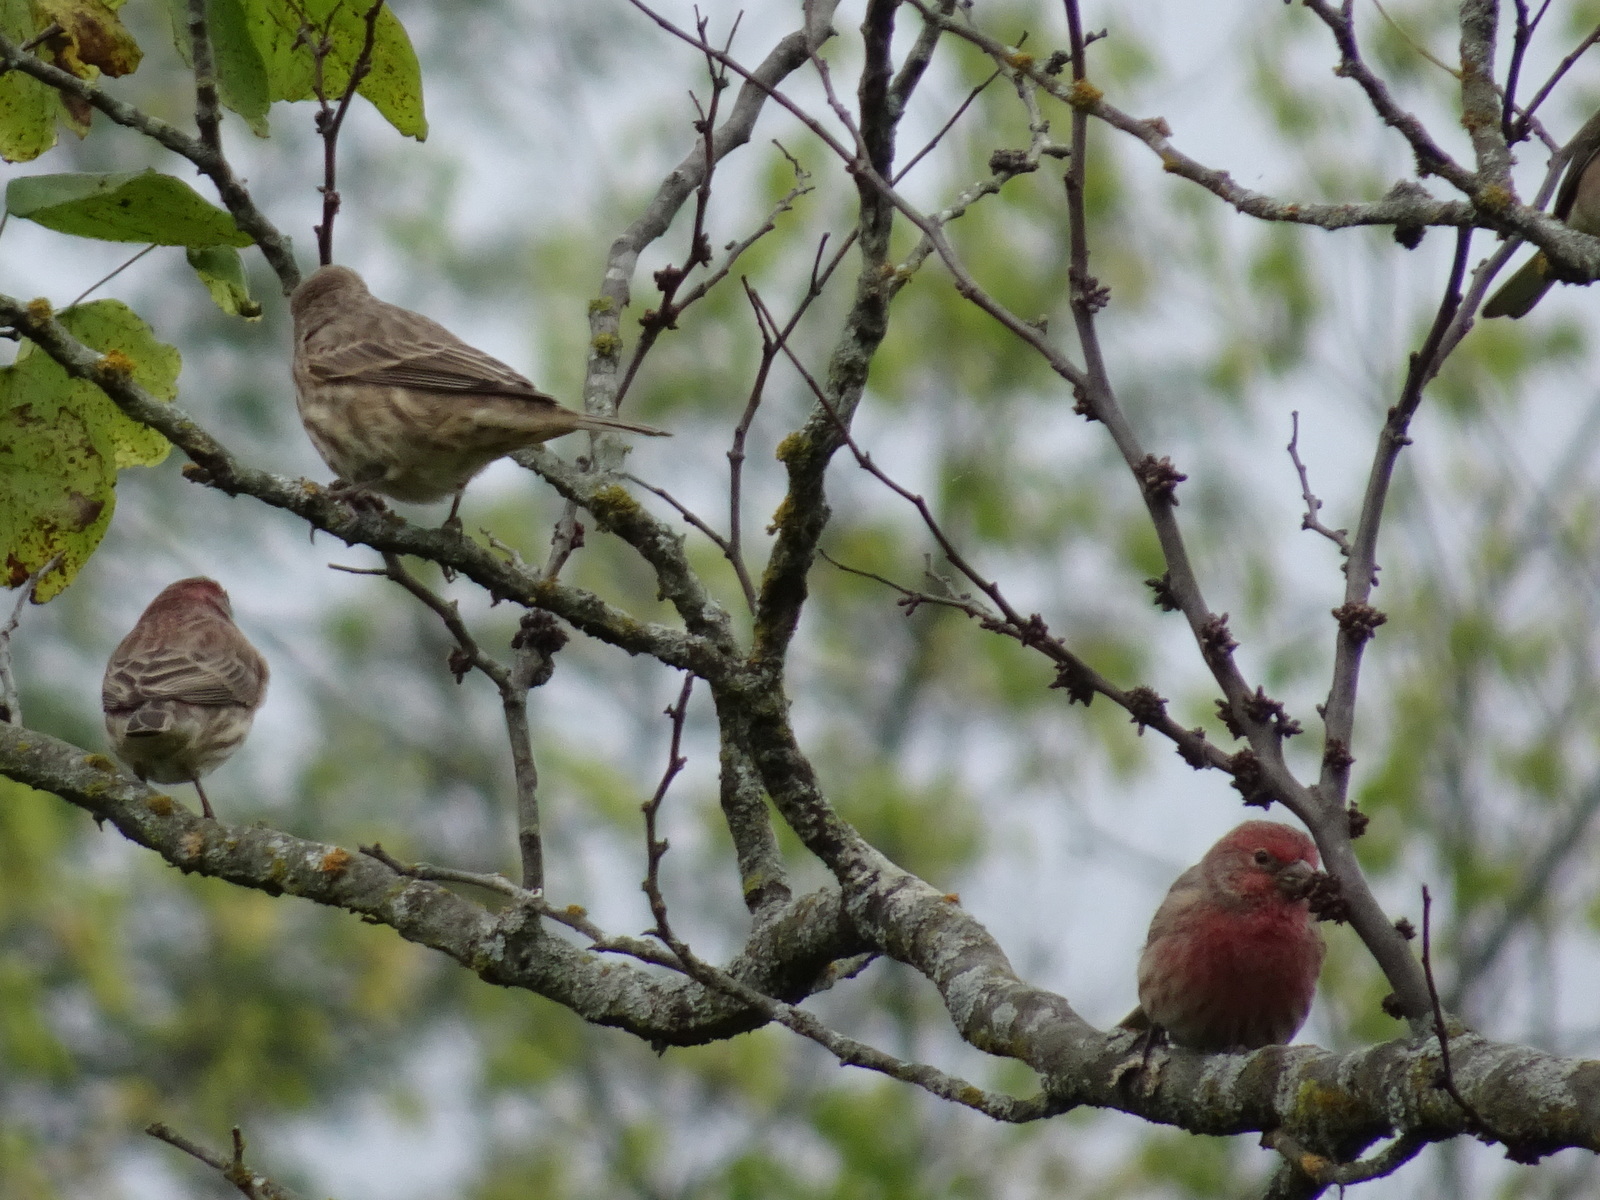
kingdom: Animalia
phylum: Chordata
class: Aves
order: Passeriformes
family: Fringillidae
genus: Haemorhous
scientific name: Haemorhous mexicanus
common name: House finch
